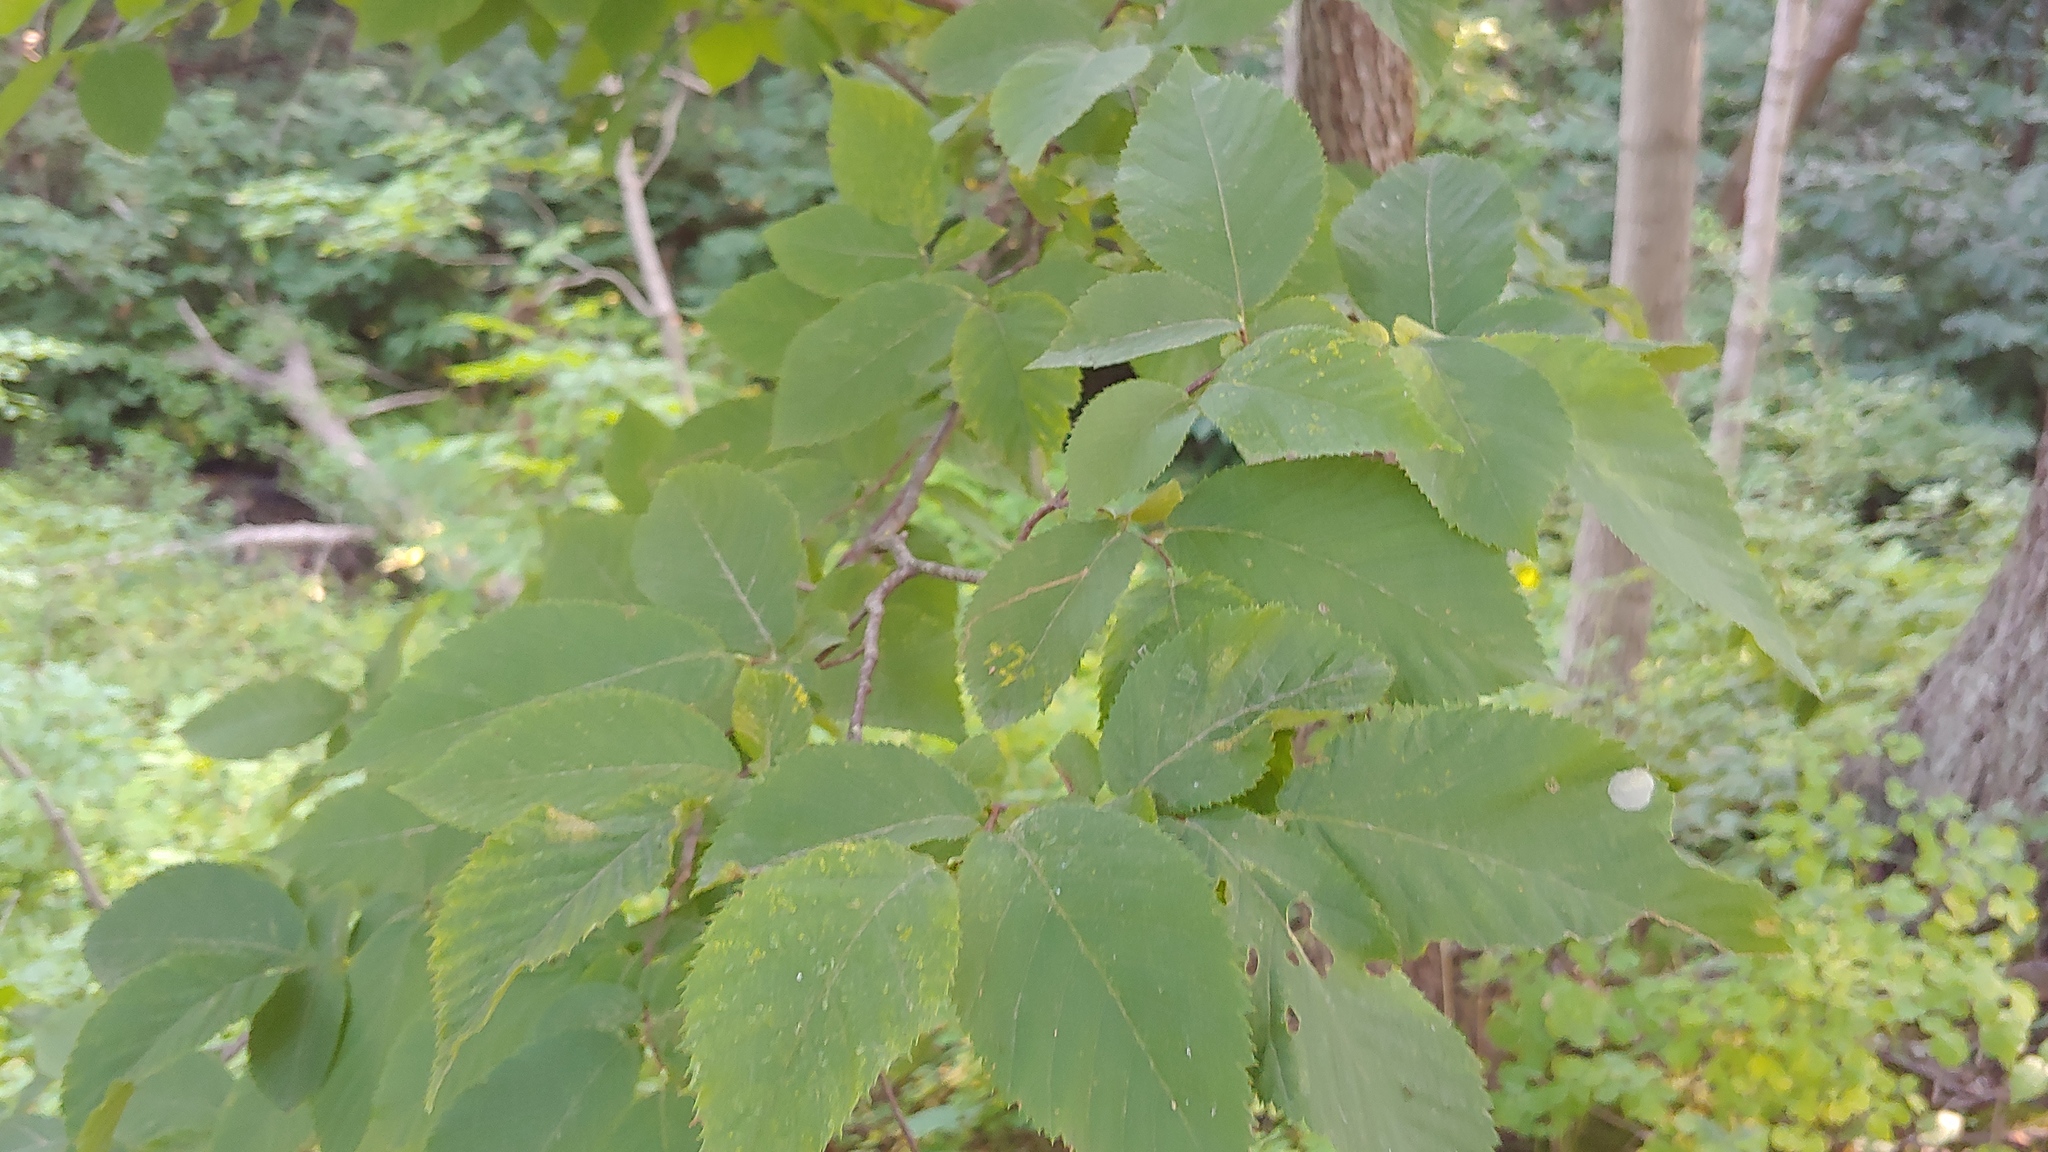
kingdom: Plantae
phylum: Tracheophyta
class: Magnoliopsida
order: Fagales
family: Betulaceae
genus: Ostrya
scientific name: Ostrya virginiana
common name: Ironwood
